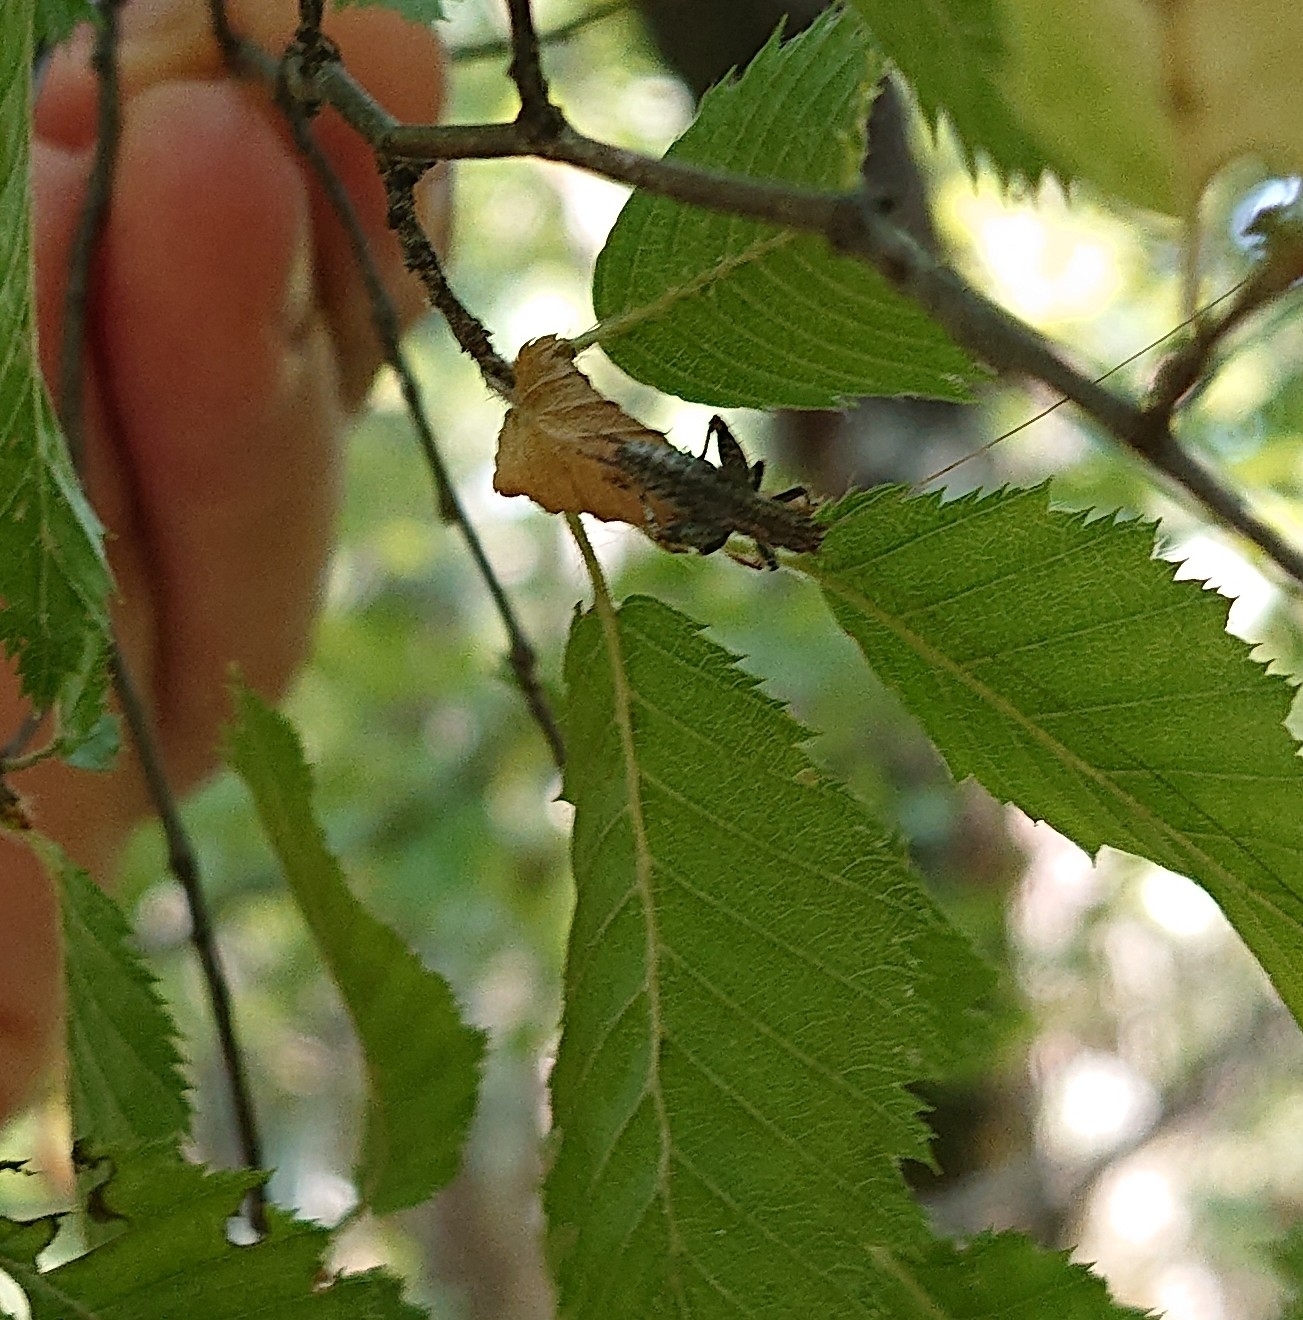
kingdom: Animalia
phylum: Arthropoda
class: Insecta
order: Orthoptera
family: Mogoplistidae
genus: Arachnocephalus
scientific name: Arachnocephalus vestitus
